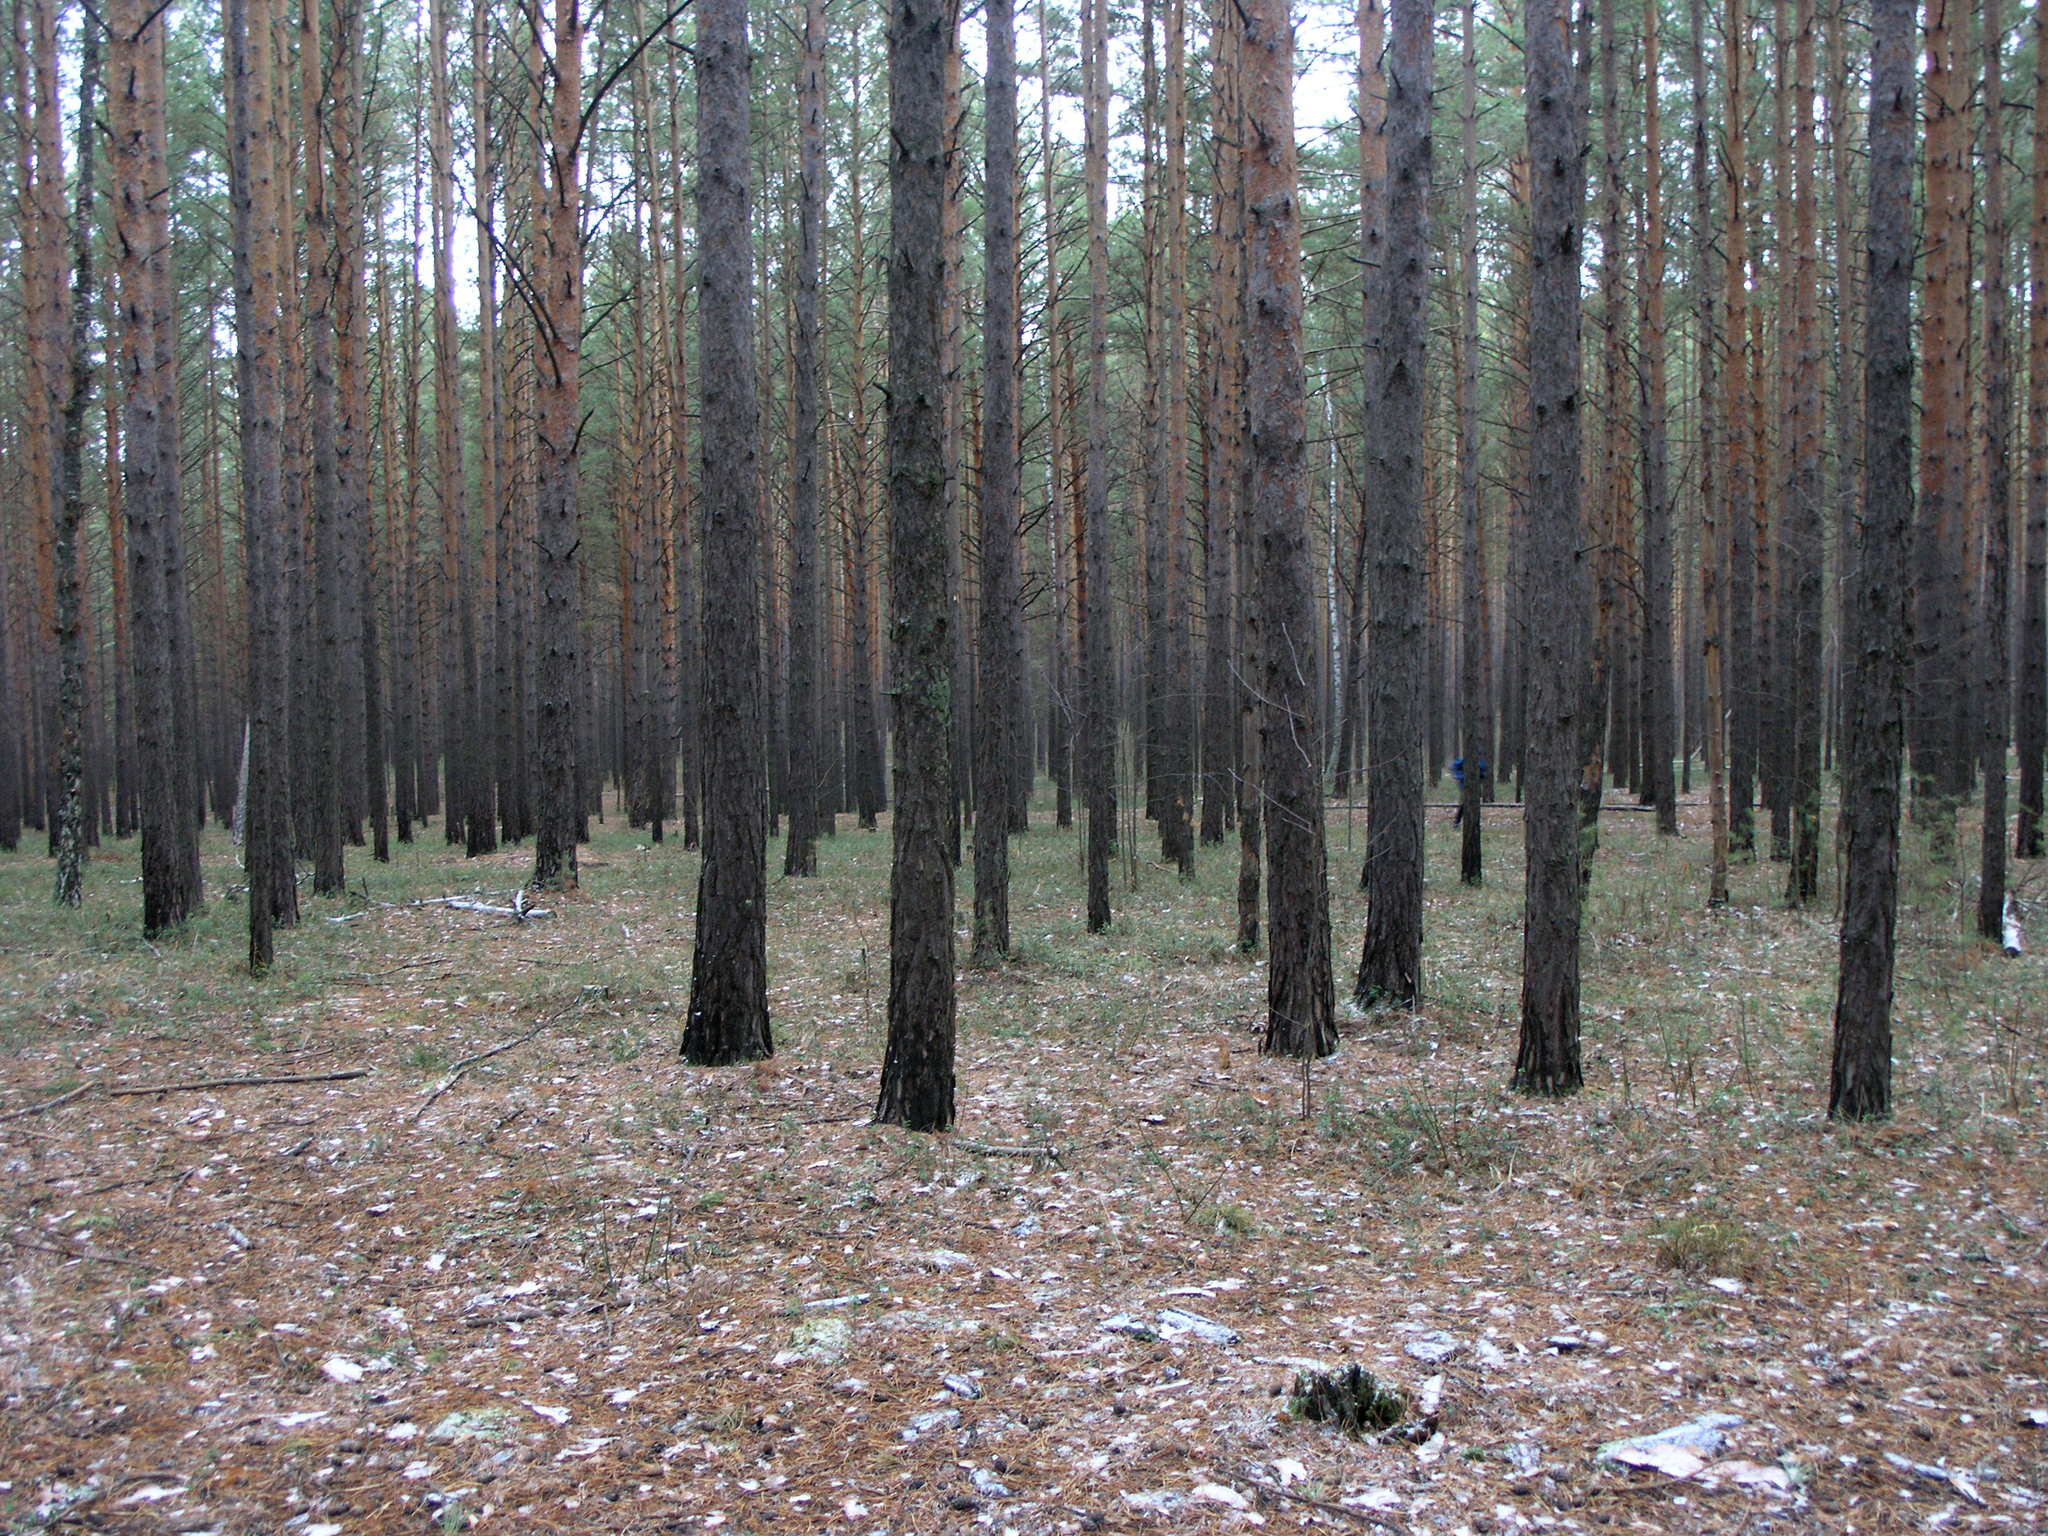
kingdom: Plantae
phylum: Tracheophyta
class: Pinopsida
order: Pinales
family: Pinaceae
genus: Pinus
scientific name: Pinus sylvestris
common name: Scots pine
